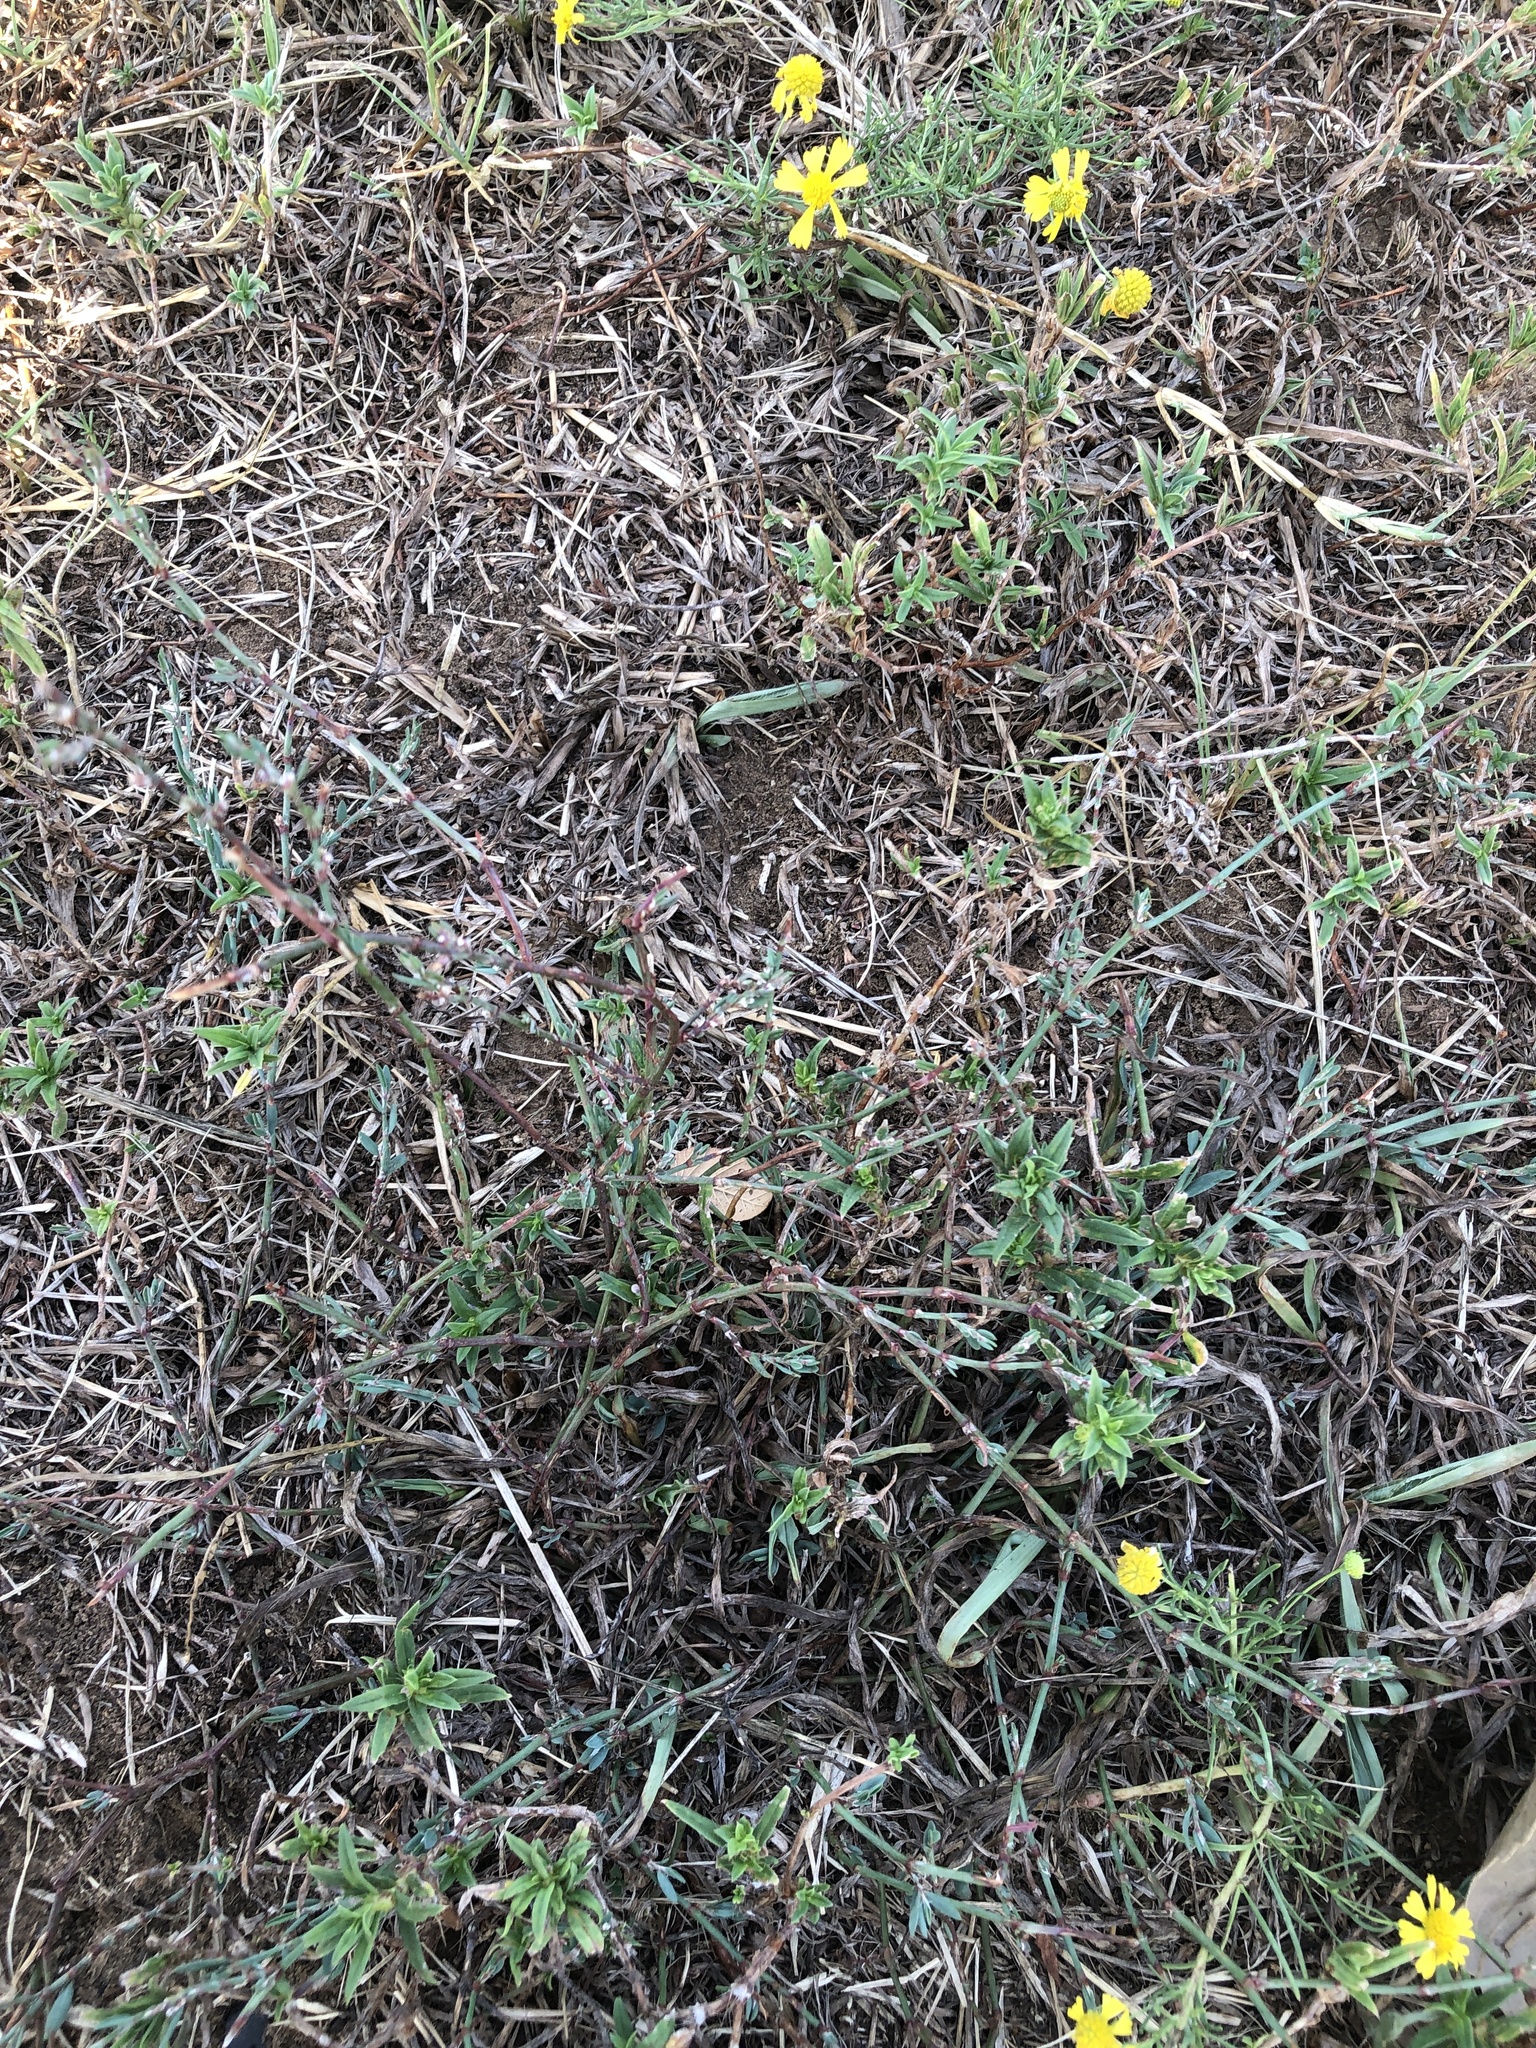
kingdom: Plantae
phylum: Tracheophyta
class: Magnoliopsida
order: Caryophyllales
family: Polygonaceae
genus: Polygonum
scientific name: Polygonum aviculare
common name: Prostrate knotweed
